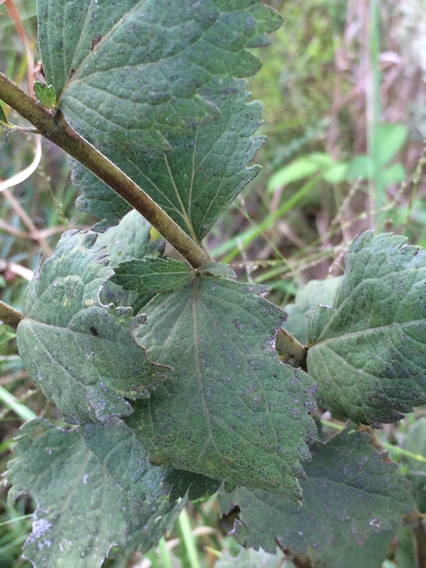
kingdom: Plantae
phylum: Tracheophyta
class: Magnoliopsida
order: Asterales
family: Asteraceae
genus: Eupatorium
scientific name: Eupatorium rotundifolium
